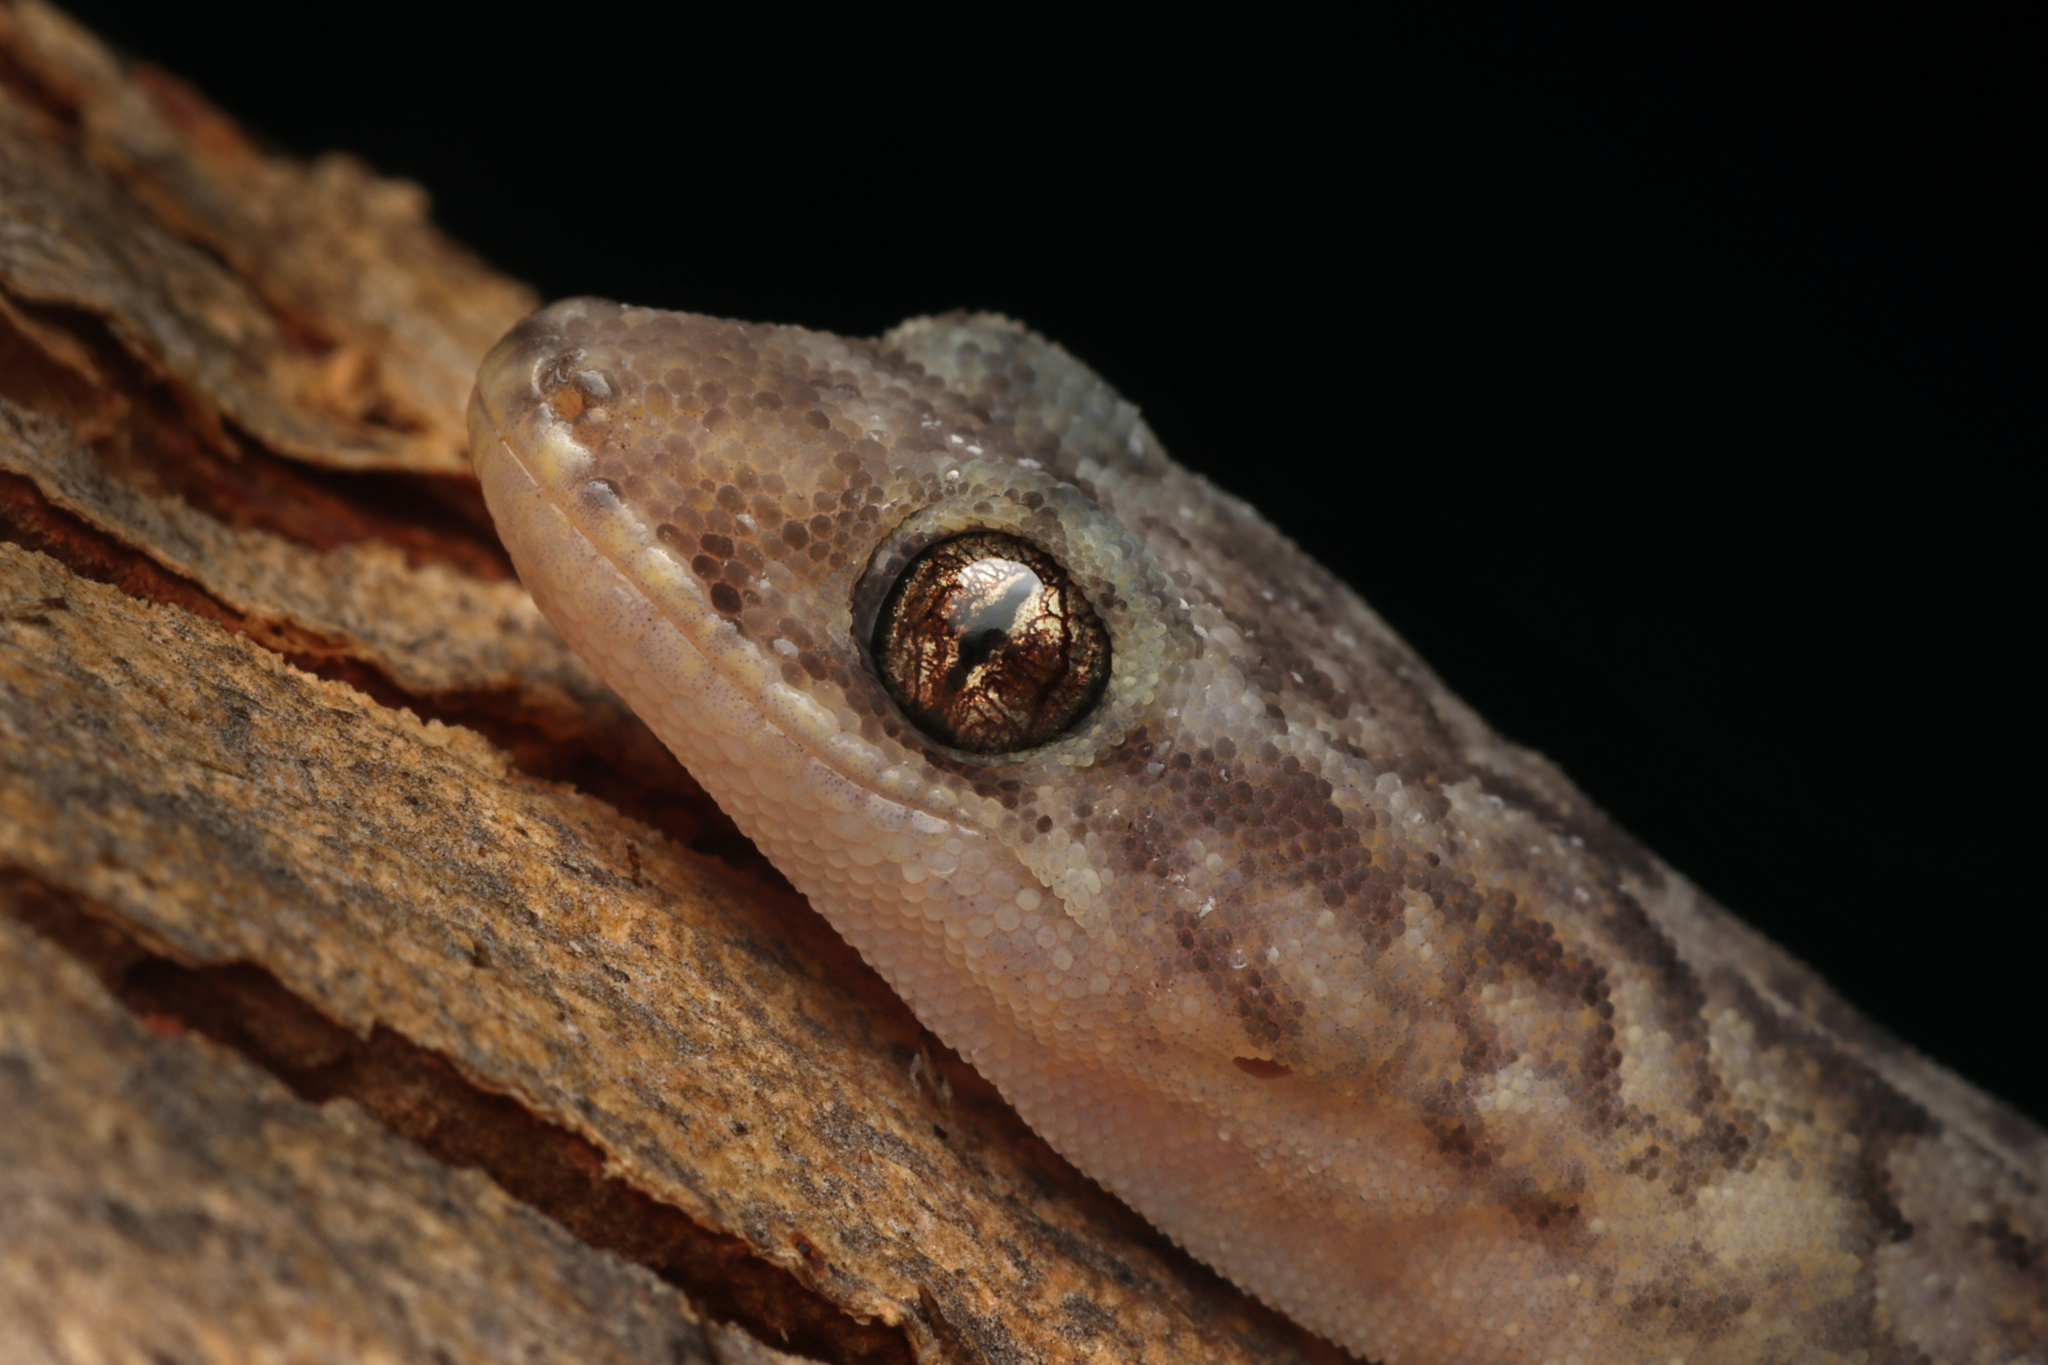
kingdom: Animalia
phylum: Chordata
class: Squamata
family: Gekkonidae
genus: Christinus
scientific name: Christinus marmoratus
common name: Marbled gecko
